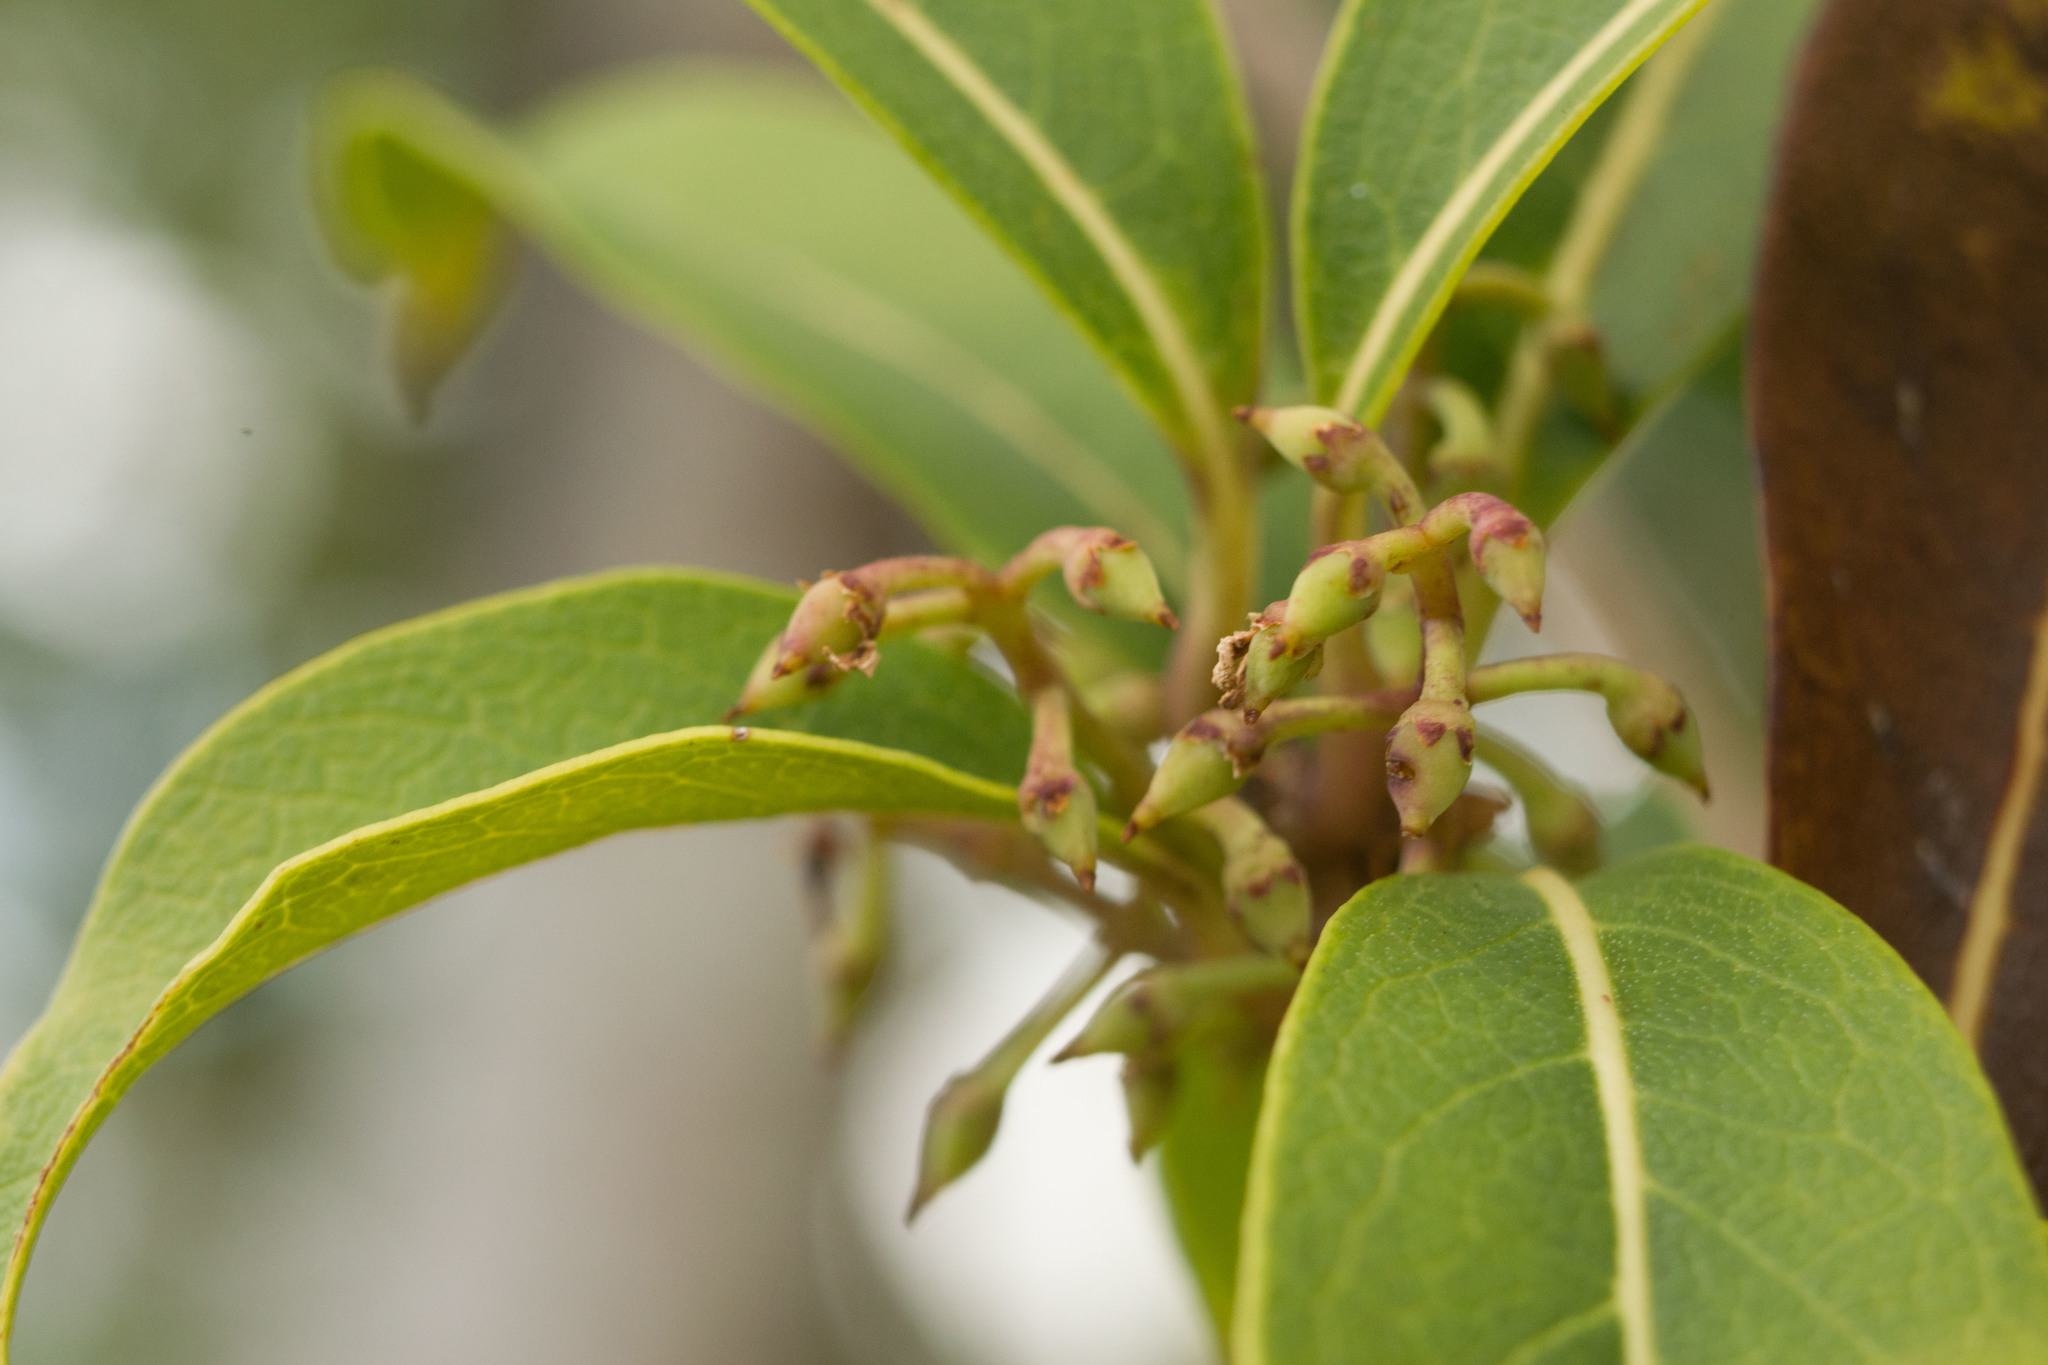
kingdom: Plantae
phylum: Tracheophyta
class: Magnoliopsida
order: Lamiales
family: Oleaceae
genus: Nestegis
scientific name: Nestegis sandwicensis
